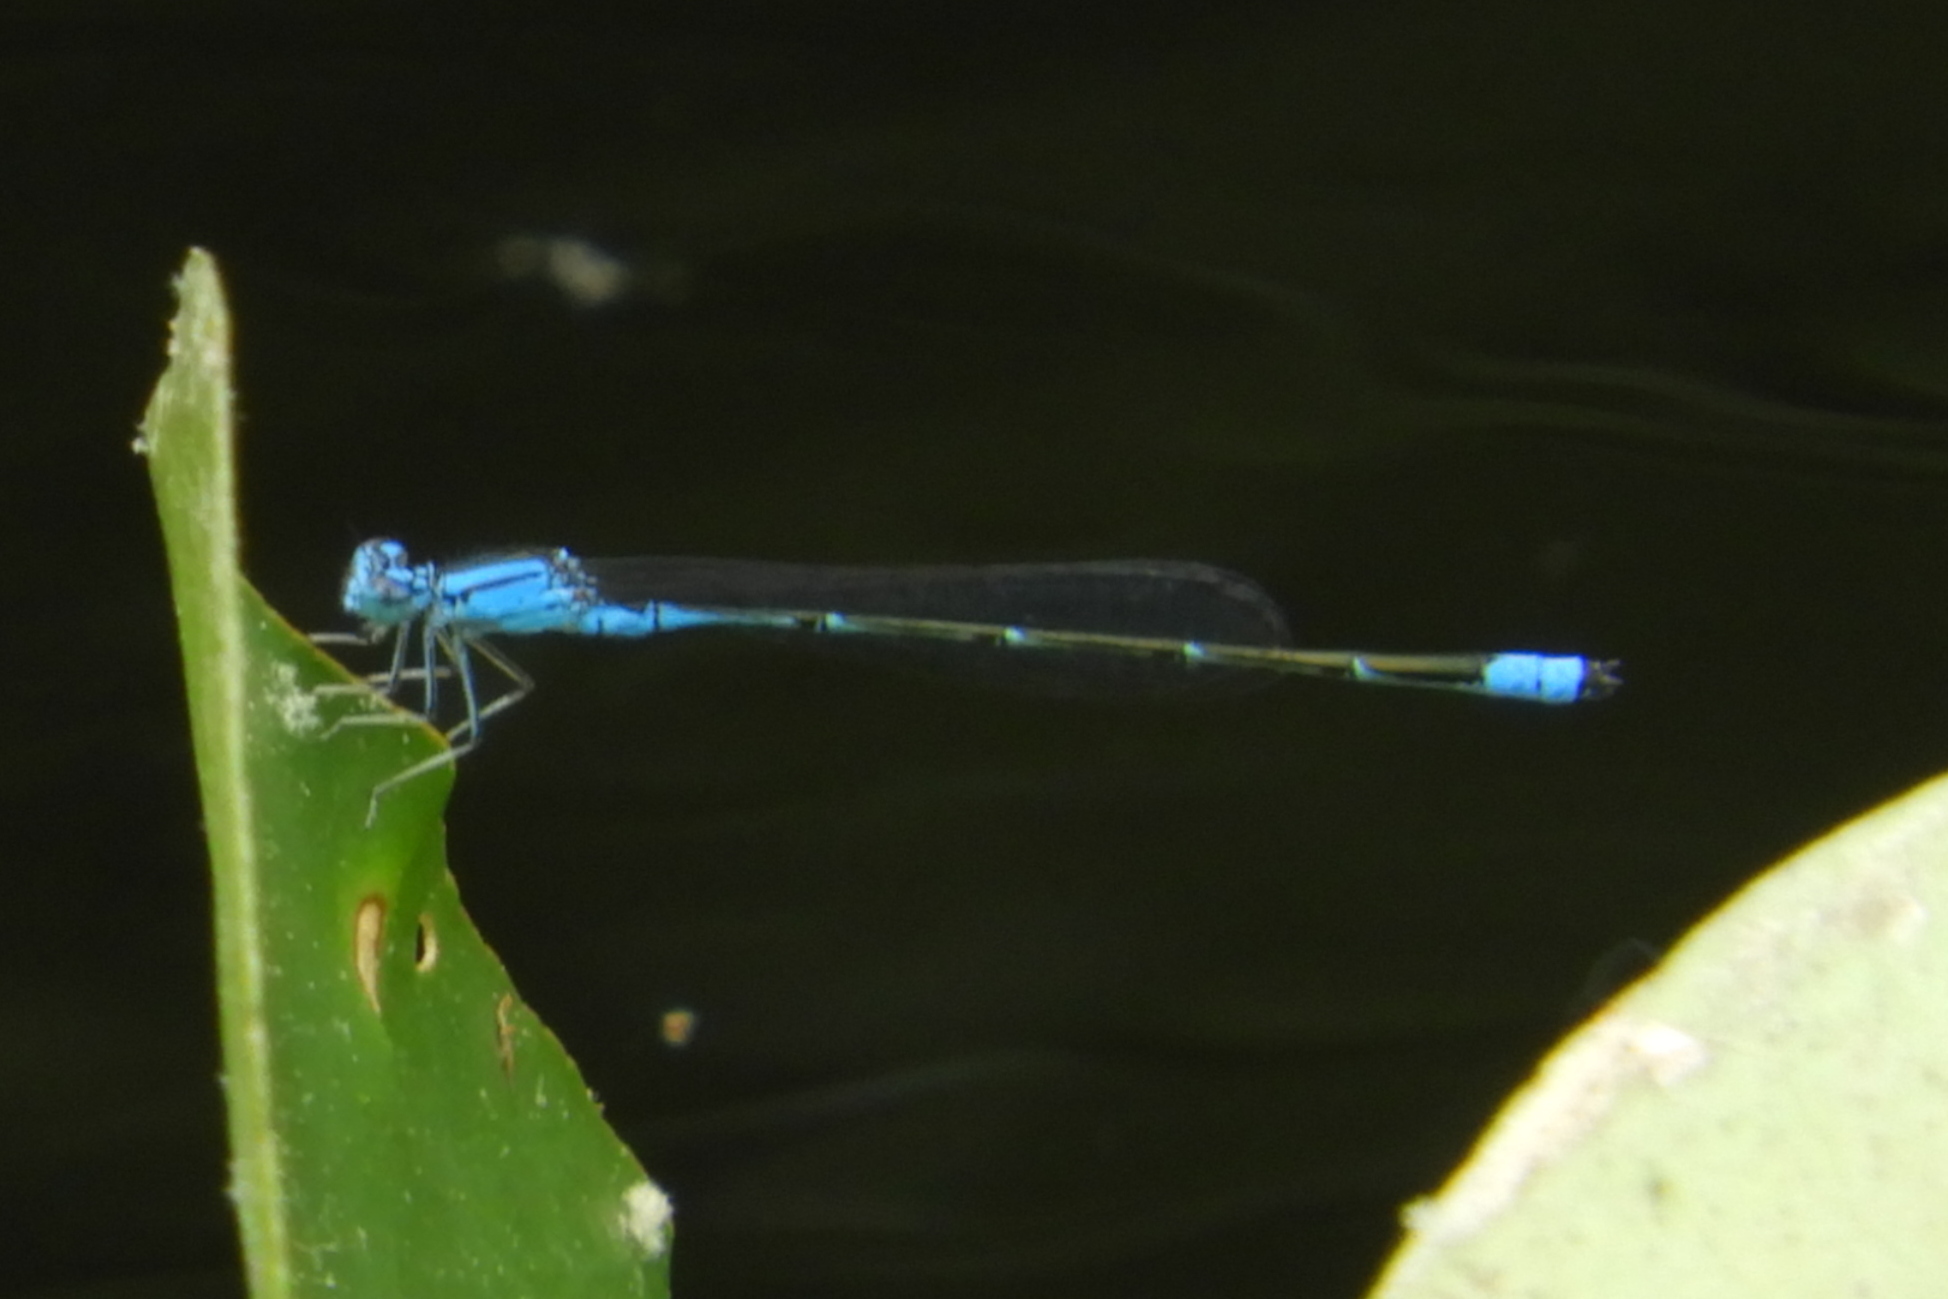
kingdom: Animalia
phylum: Arthropoda
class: Insecta
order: Odonata
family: Coenagrionidae
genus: Enallagma
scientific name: Enallagma traviatum
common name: Slender bluet
